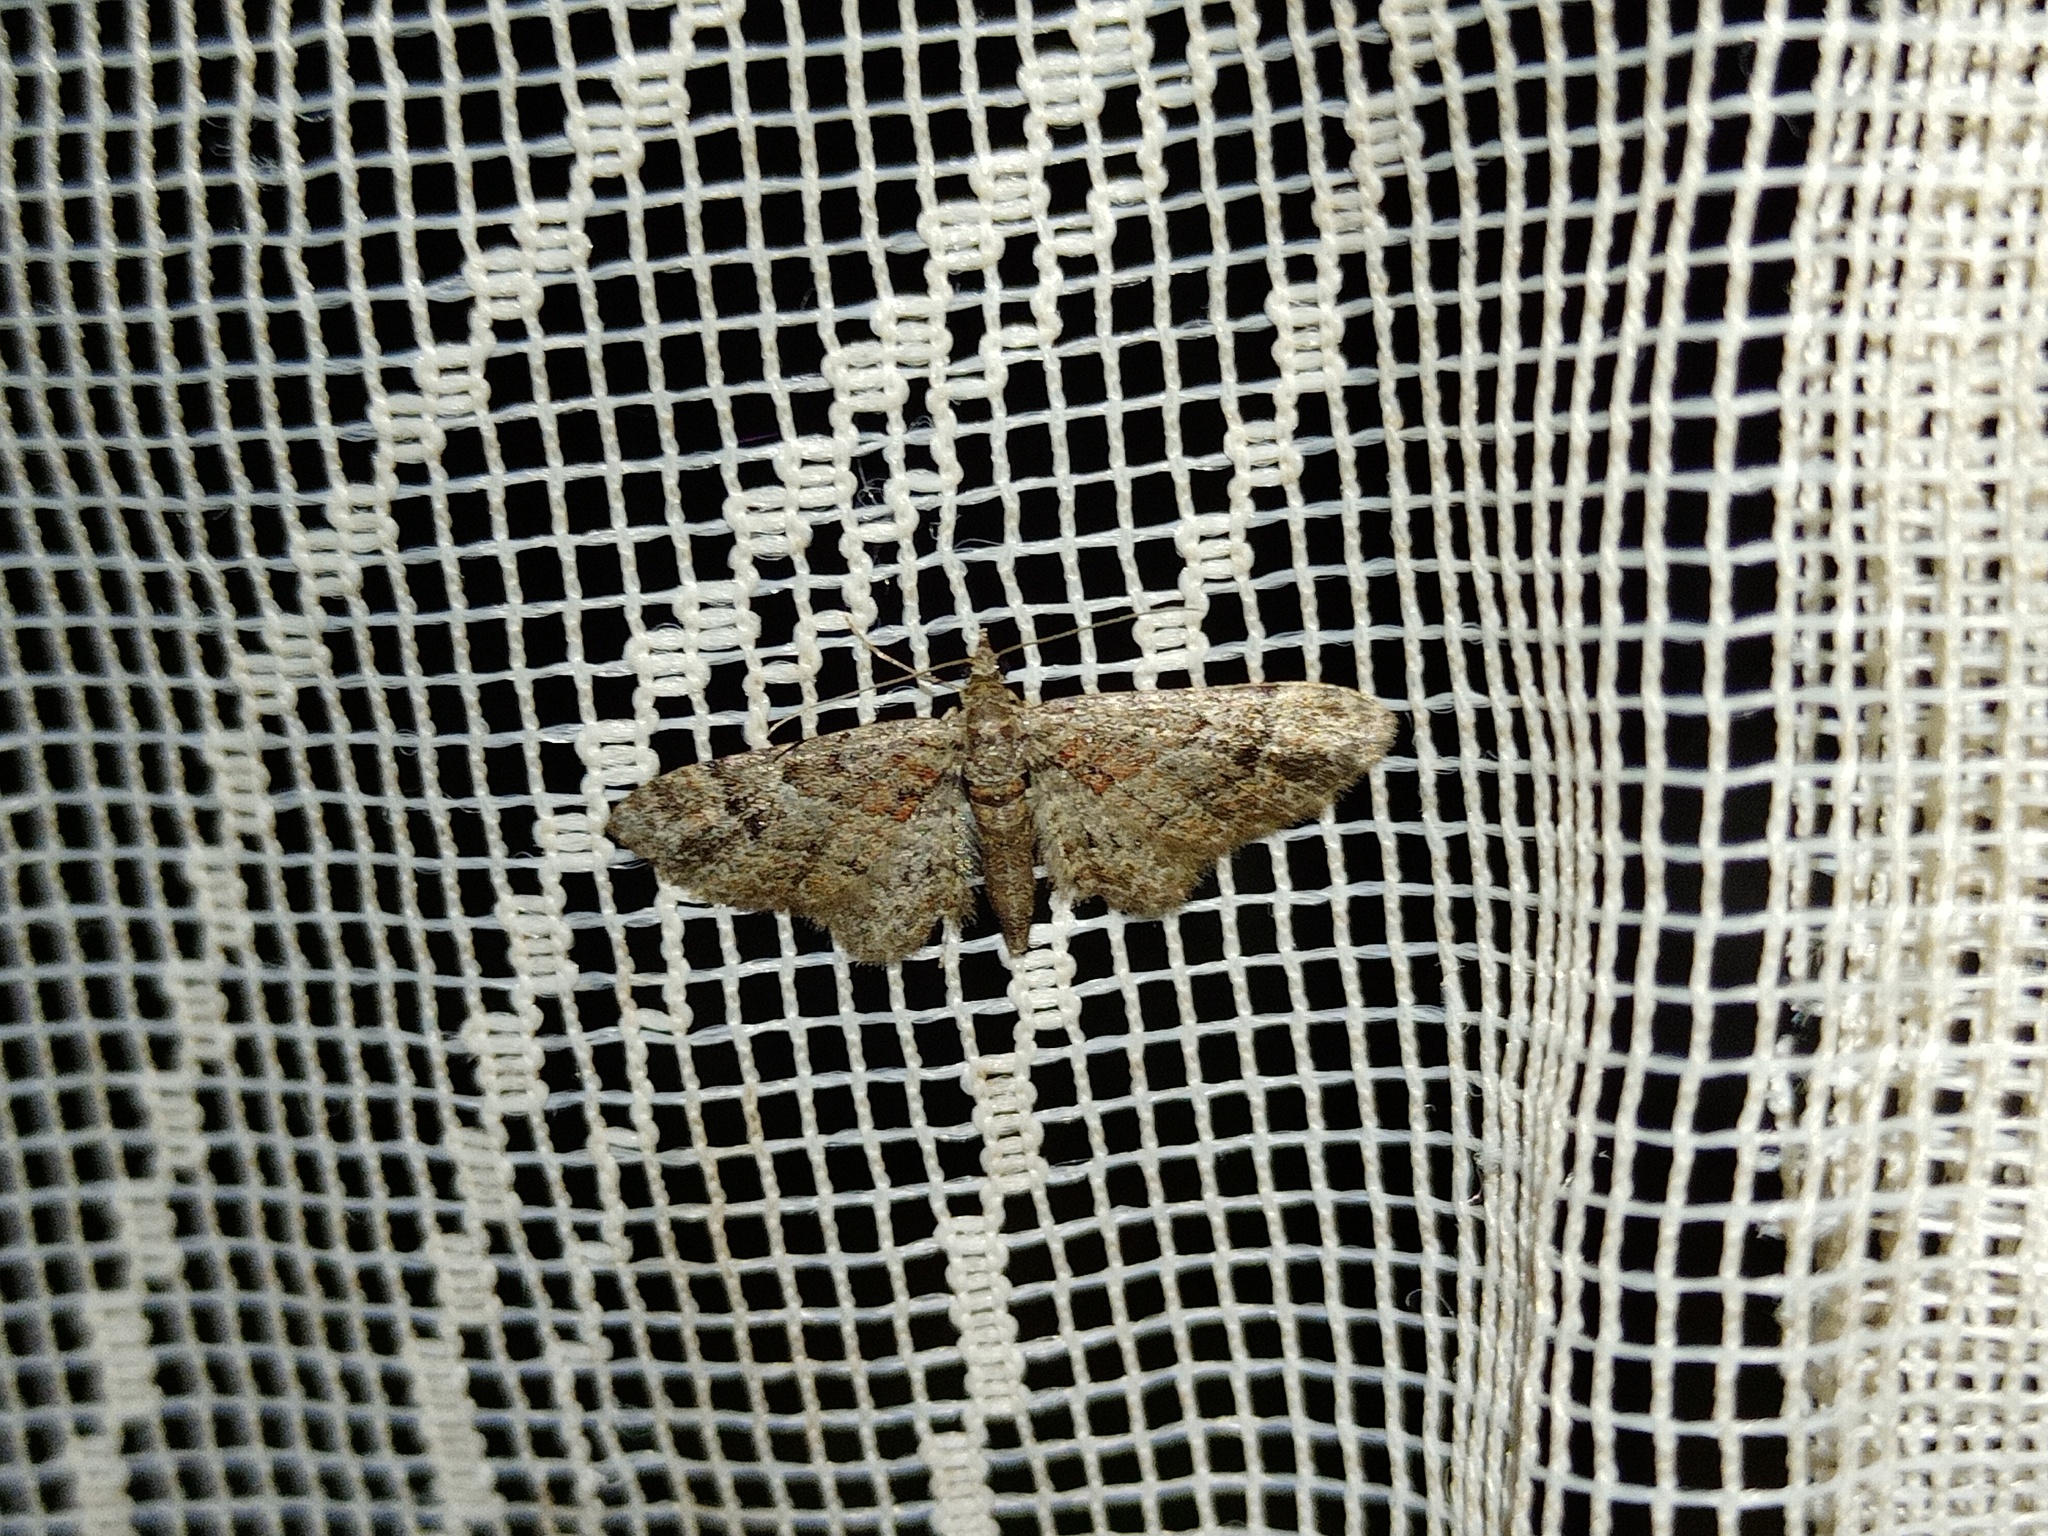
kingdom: Animalia
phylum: Arthropoda
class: Insecta
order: Lepidoptera
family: Geometridae
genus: Gymnoscelis
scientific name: Gymnoscelis rufifasciata
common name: Double-striped pug
